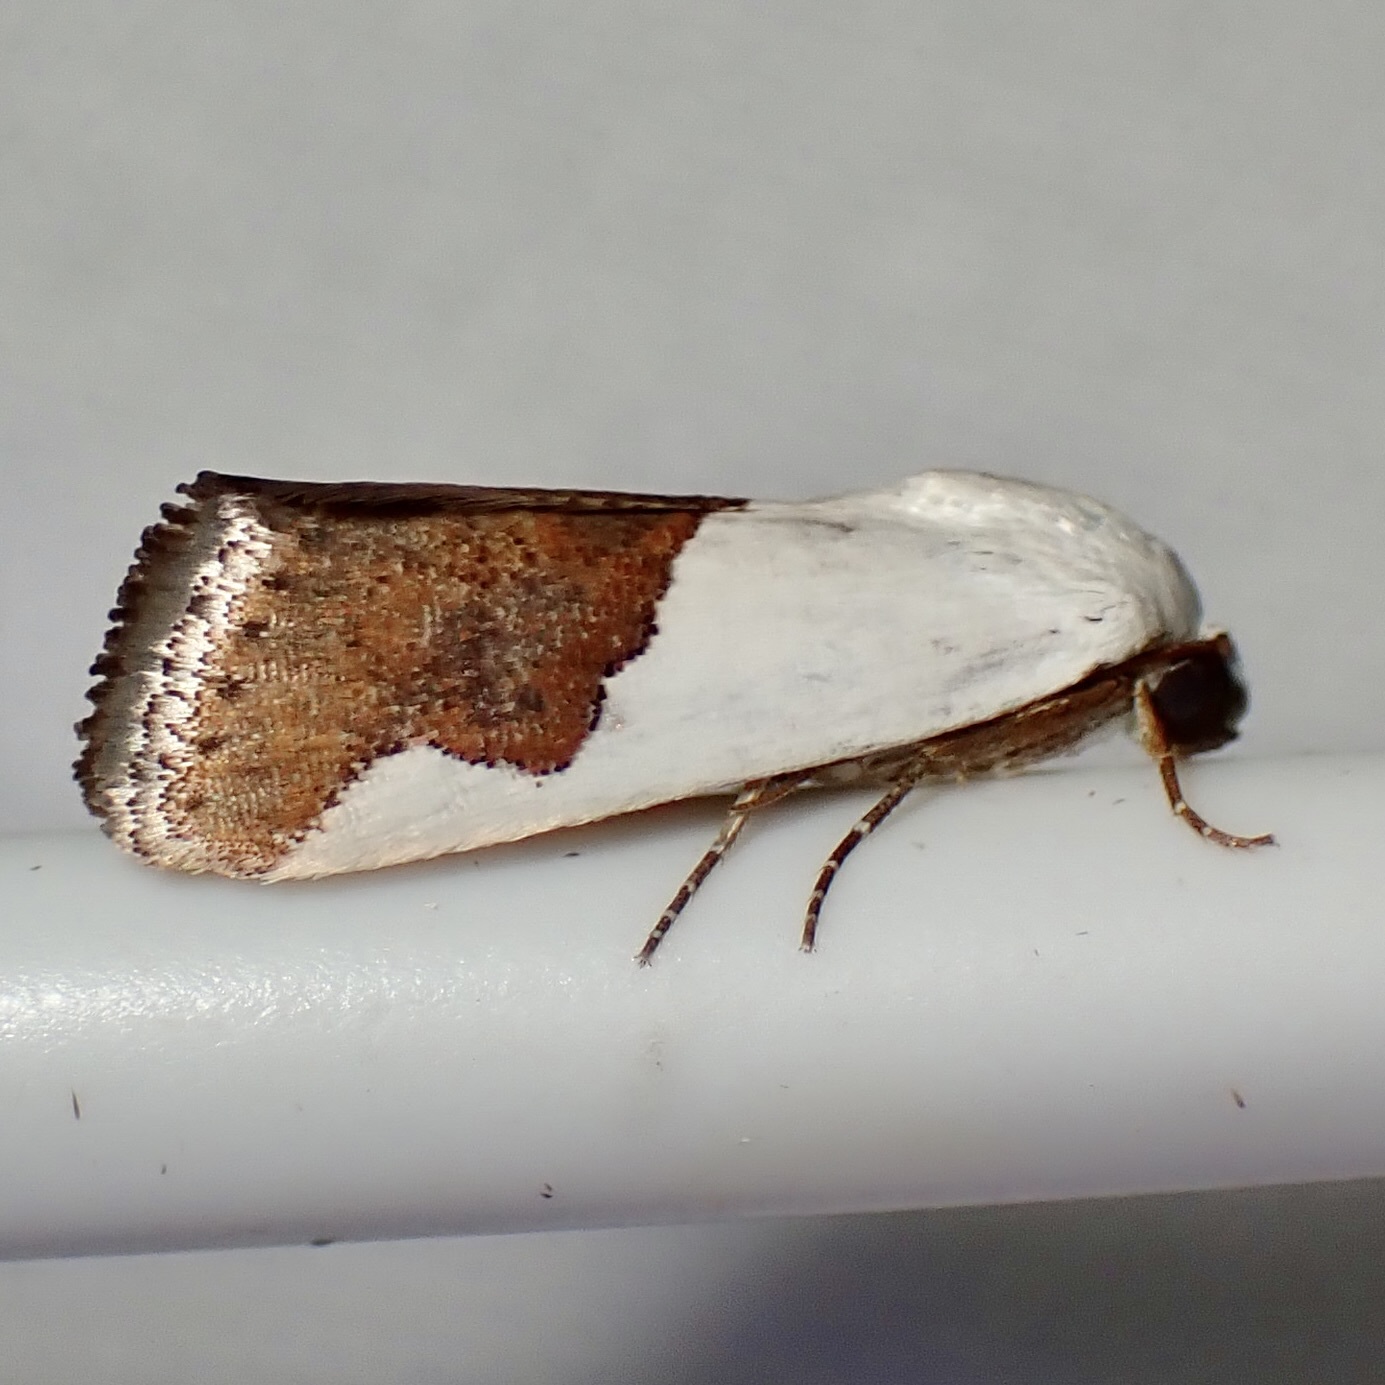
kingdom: Animalia
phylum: Arthropoda
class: Insecta
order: Lepidoptera
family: Noctuidae
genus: Acontia
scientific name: Acontia heonyx
